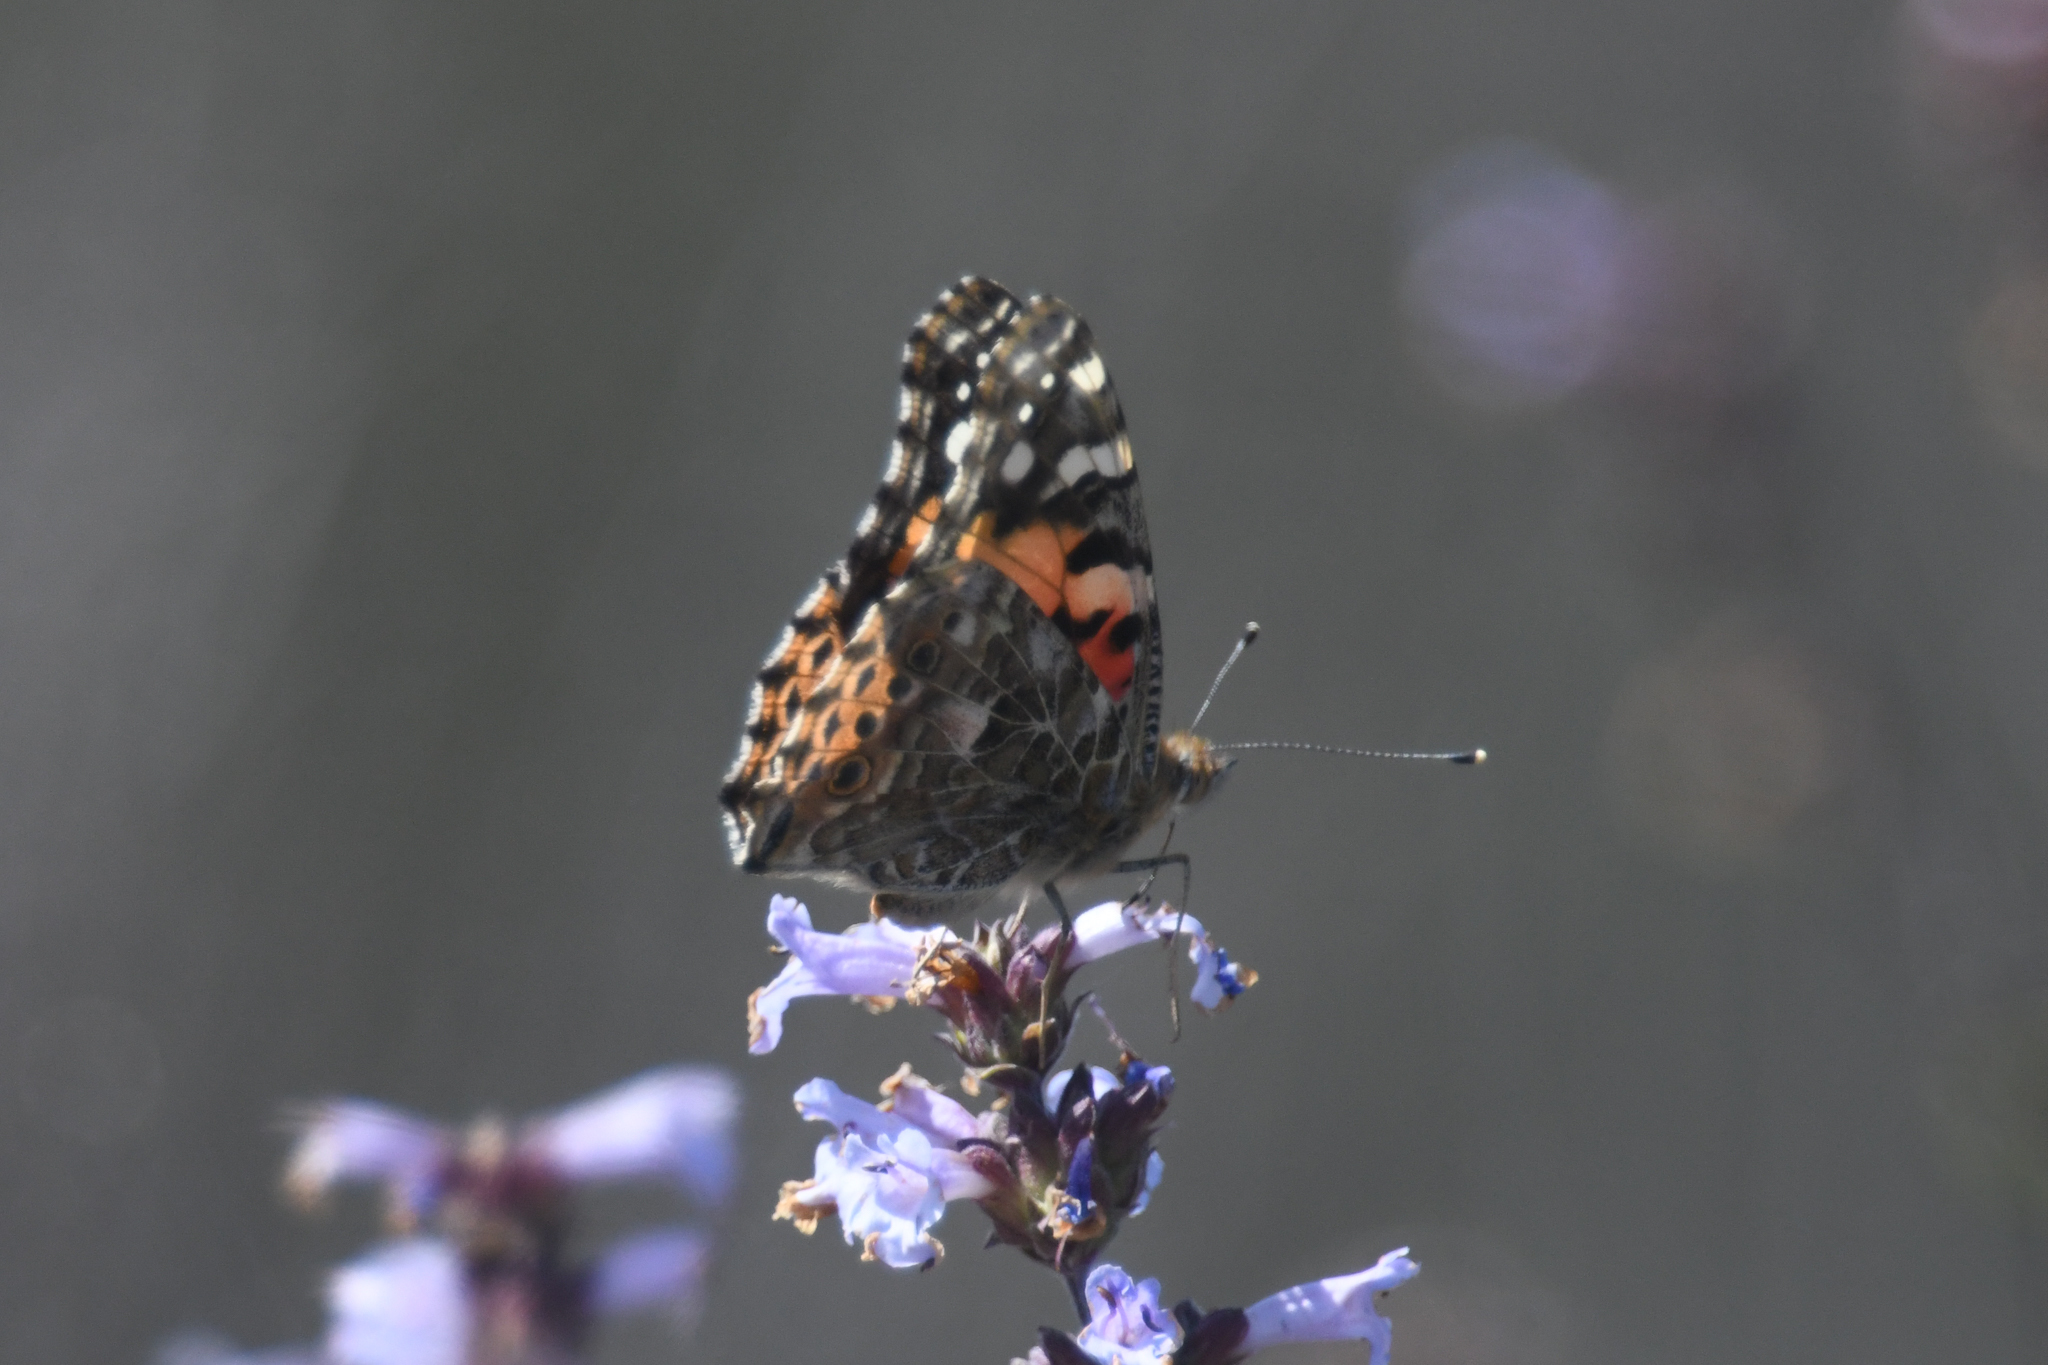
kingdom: Animalia
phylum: Arthropoda
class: Insecta
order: Lepidoptera
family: Nymphalidae
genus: Vanessa
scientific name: Vanessa cardui
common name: Painted lady
